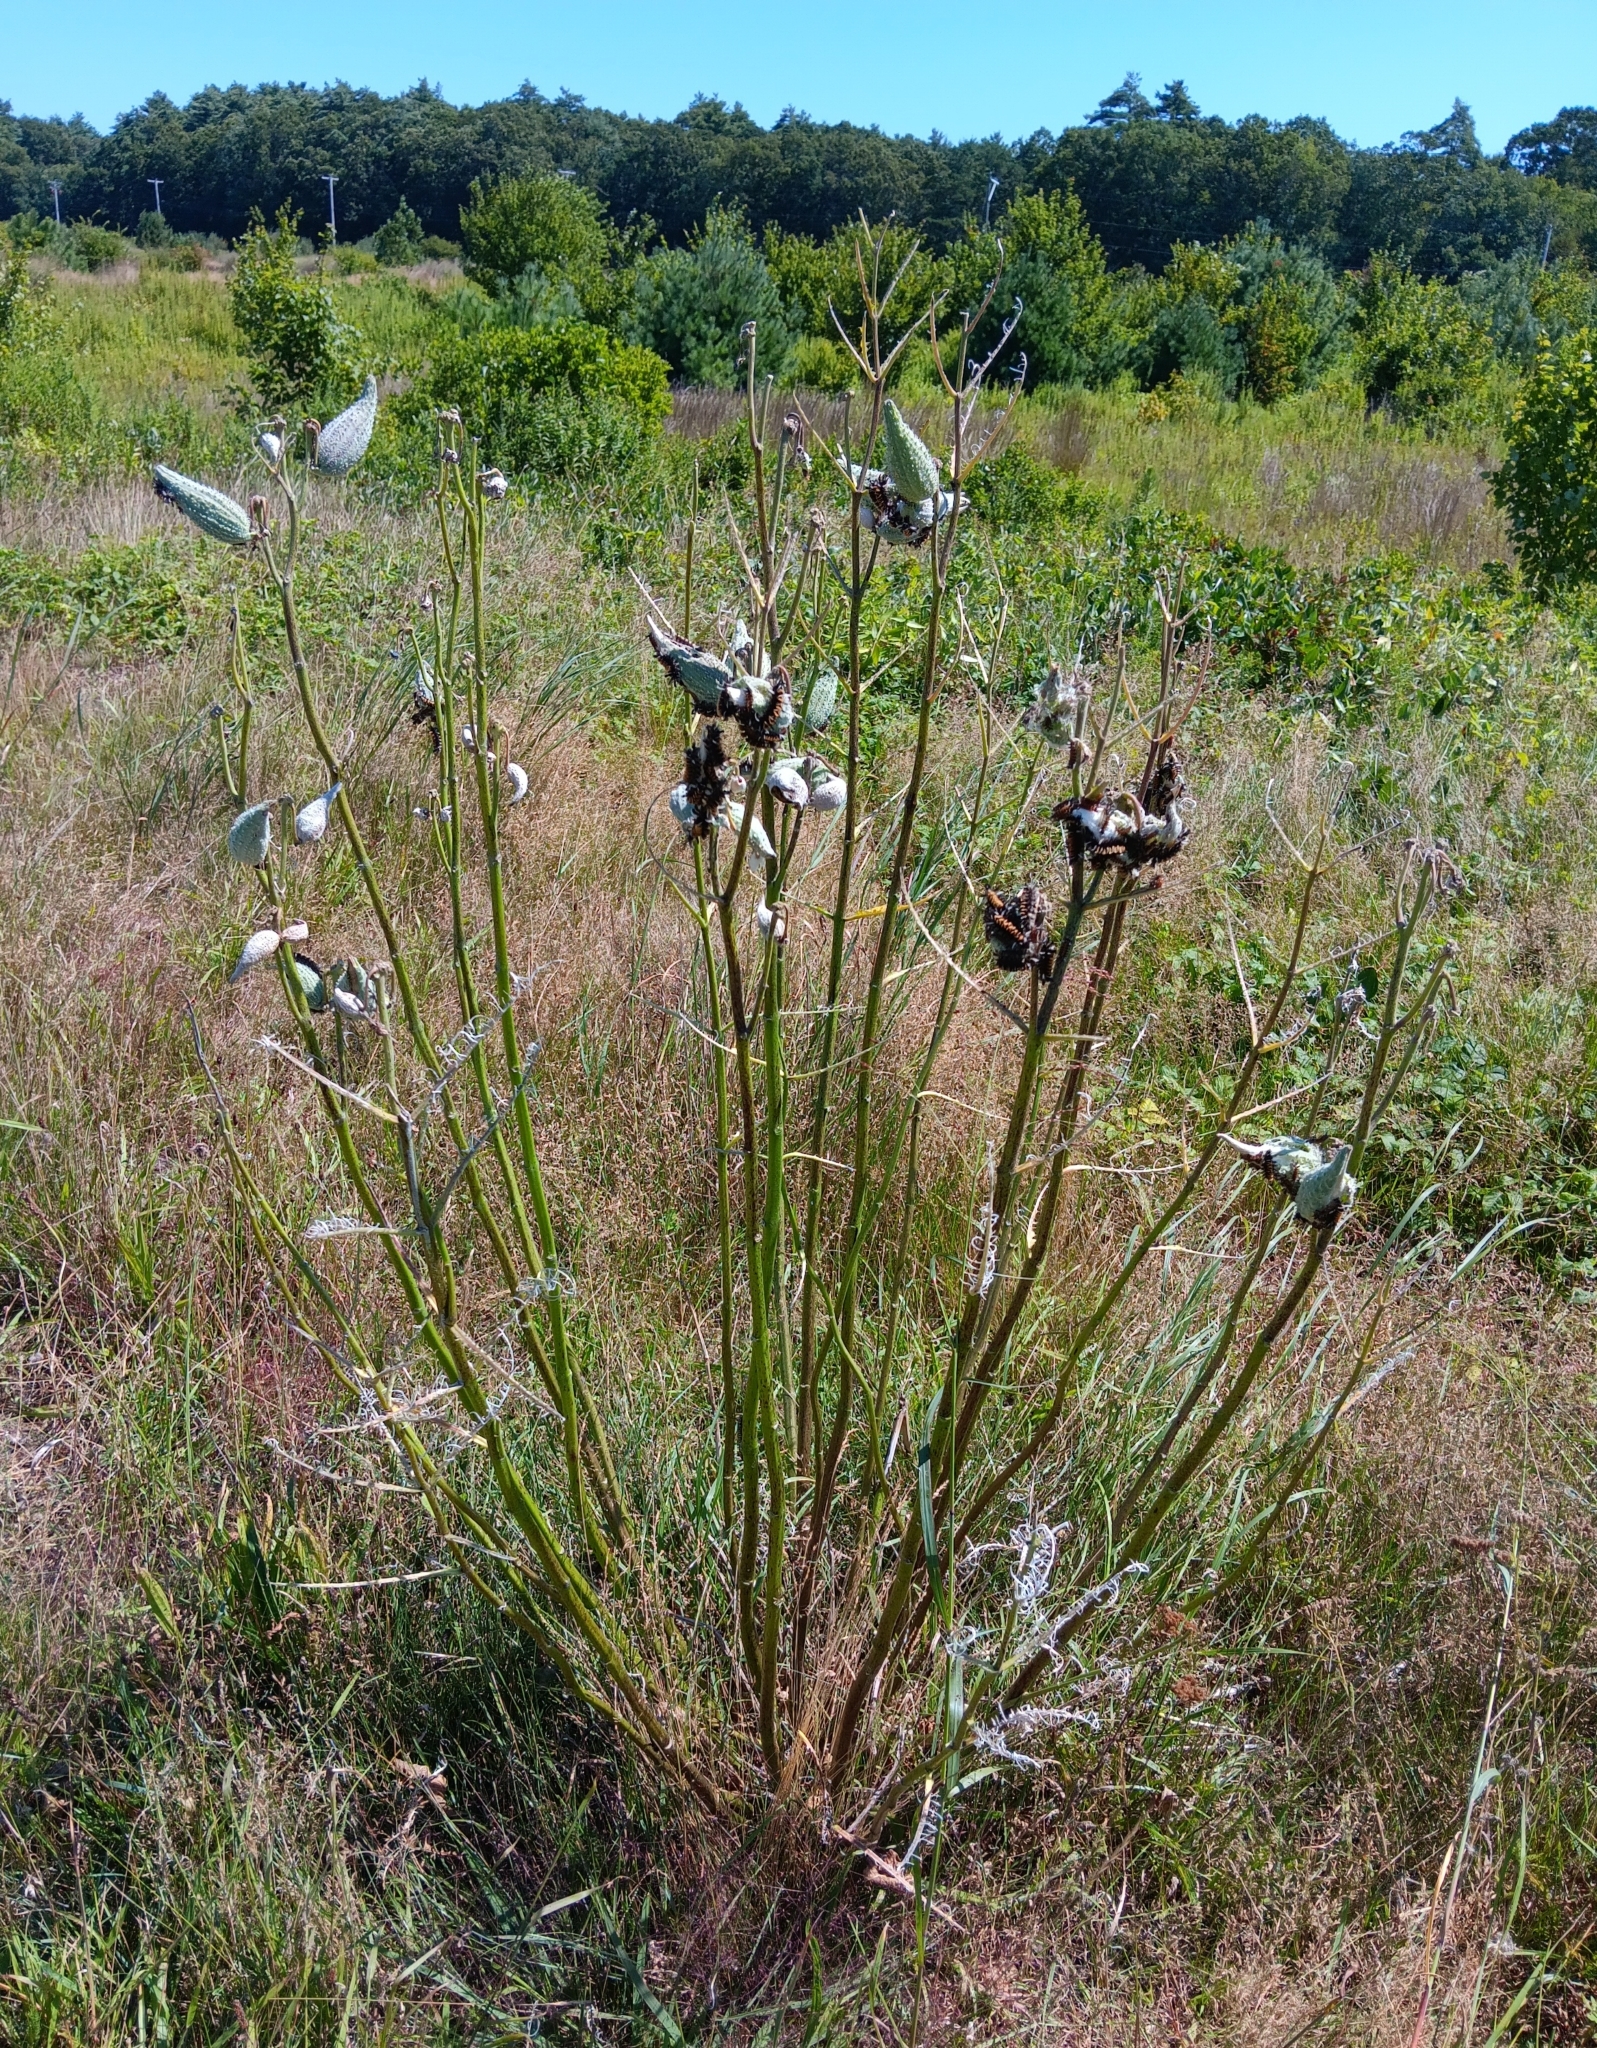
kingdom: Animalia
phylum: Arthropoda
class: Insecta
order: Lepidoptera
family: Erebidae
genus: Euchaetes
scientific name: Euchaetes egle
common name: Milkweed tussock moth
